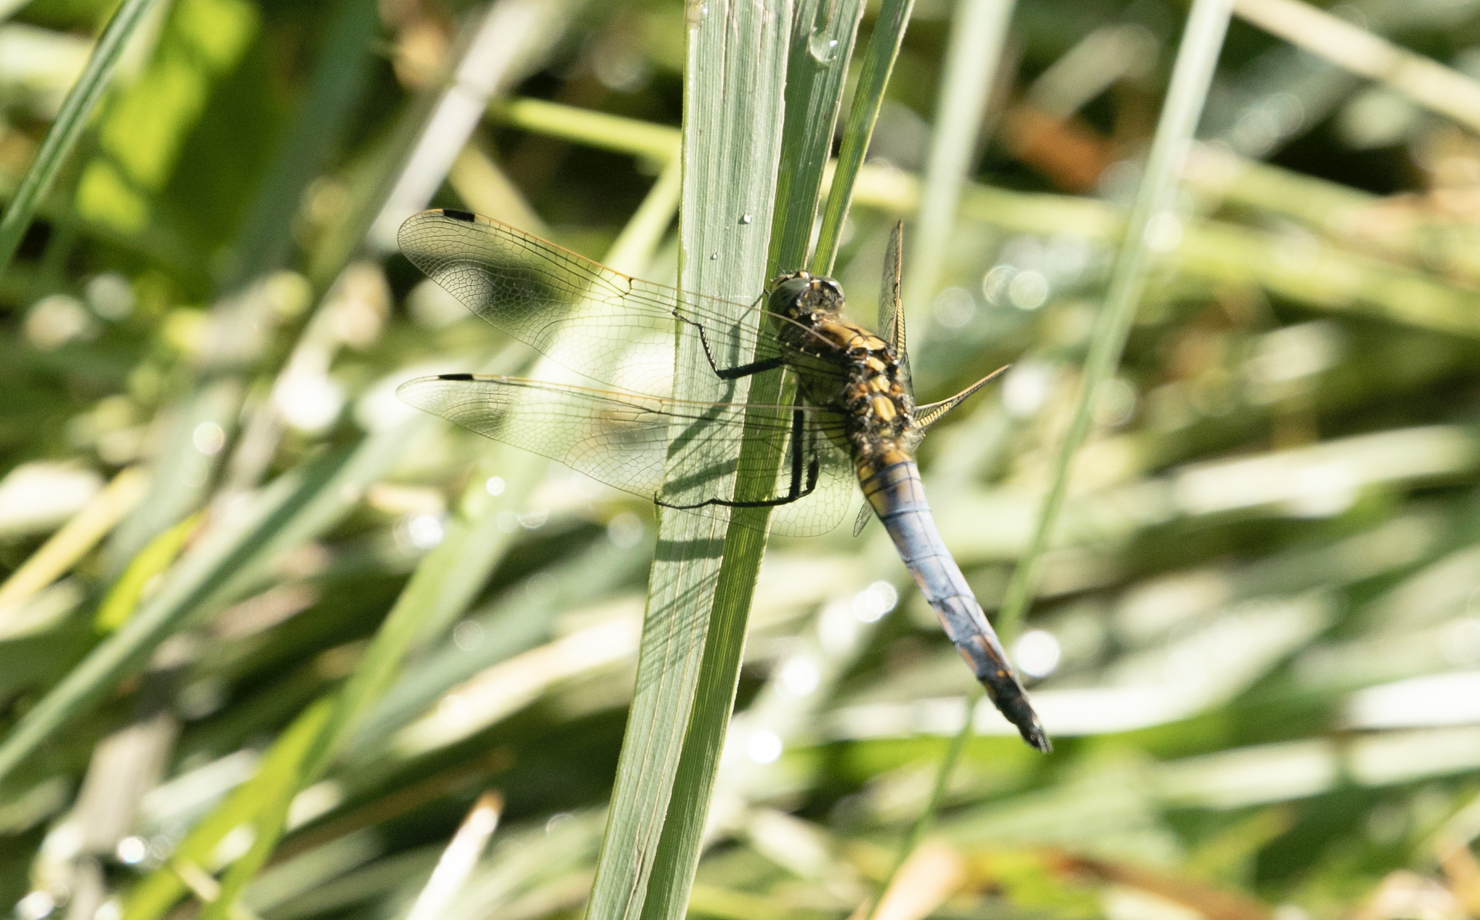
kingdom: Animalia
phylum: Arthropoda
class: Insecta
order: Odonata
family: Libellulidae
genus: Orthetrum
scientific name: Orthetrum cancellatum
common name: Black-tailed skimmer
